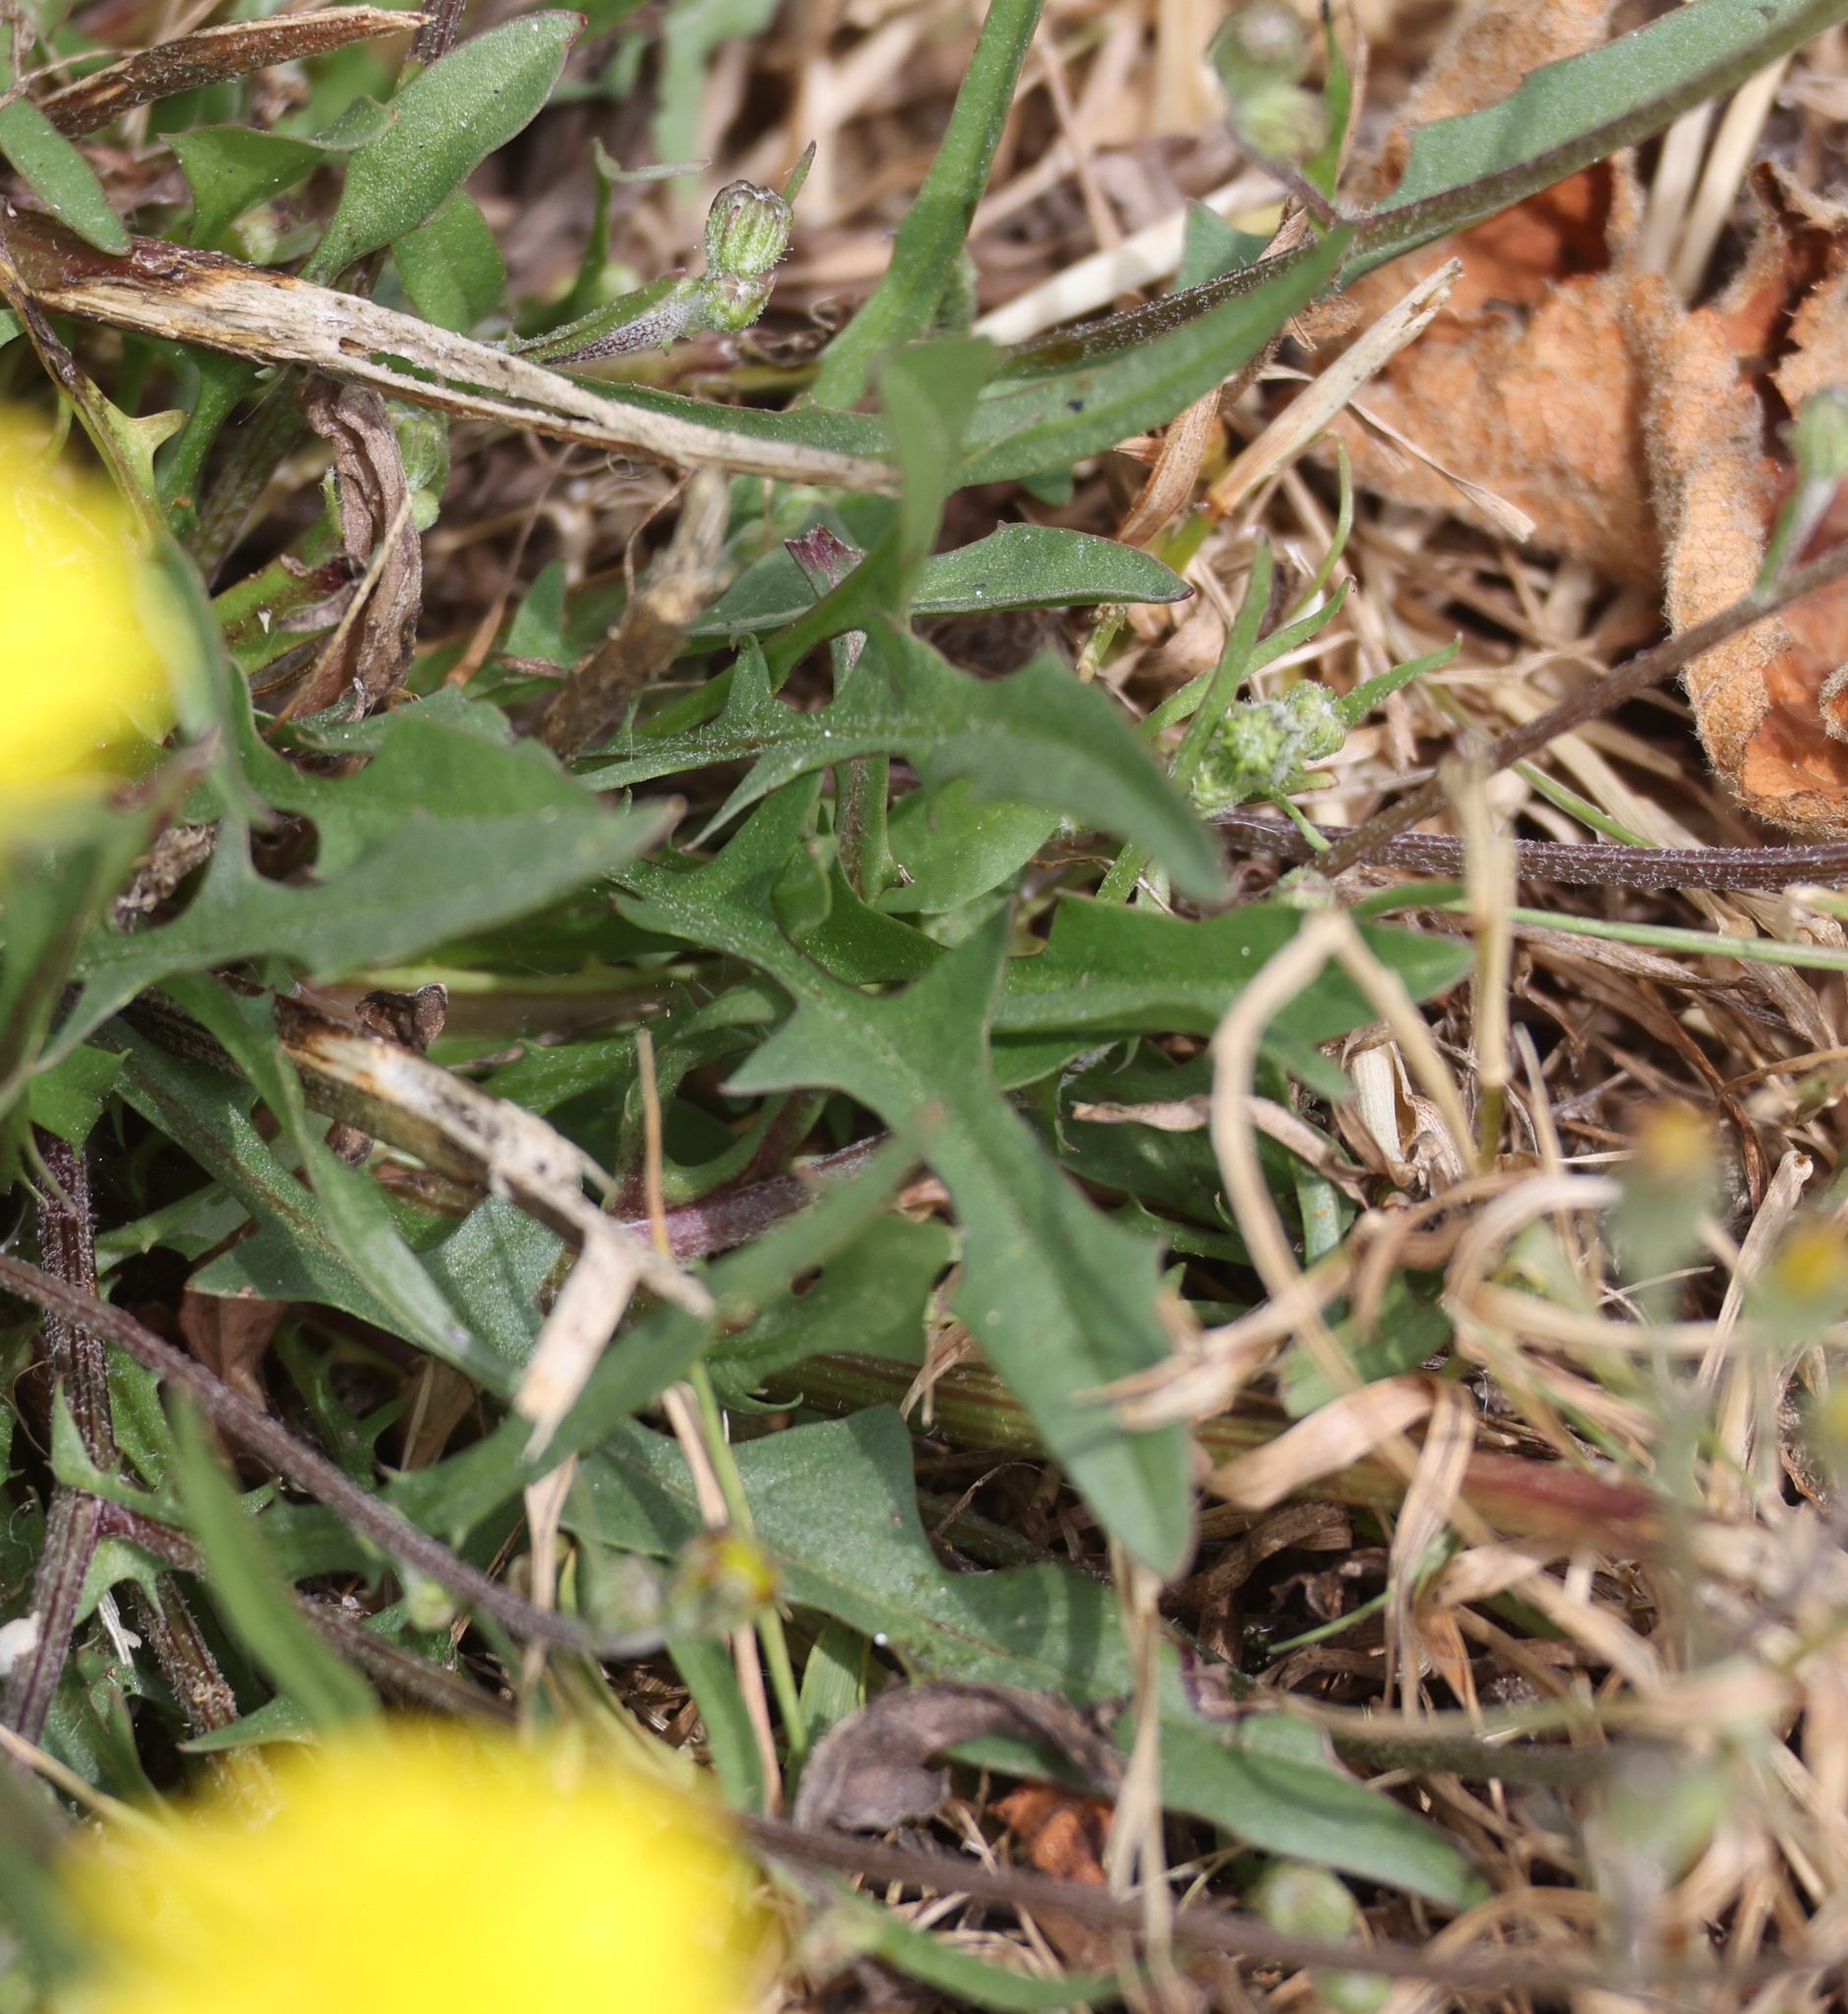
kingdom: Plantae
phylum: Tracheophyta
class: Magnoliopsida
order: Asterales
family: Asteraceae
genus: Crepis
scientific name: Crepis capillaris
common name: Smooth hawksbeard
